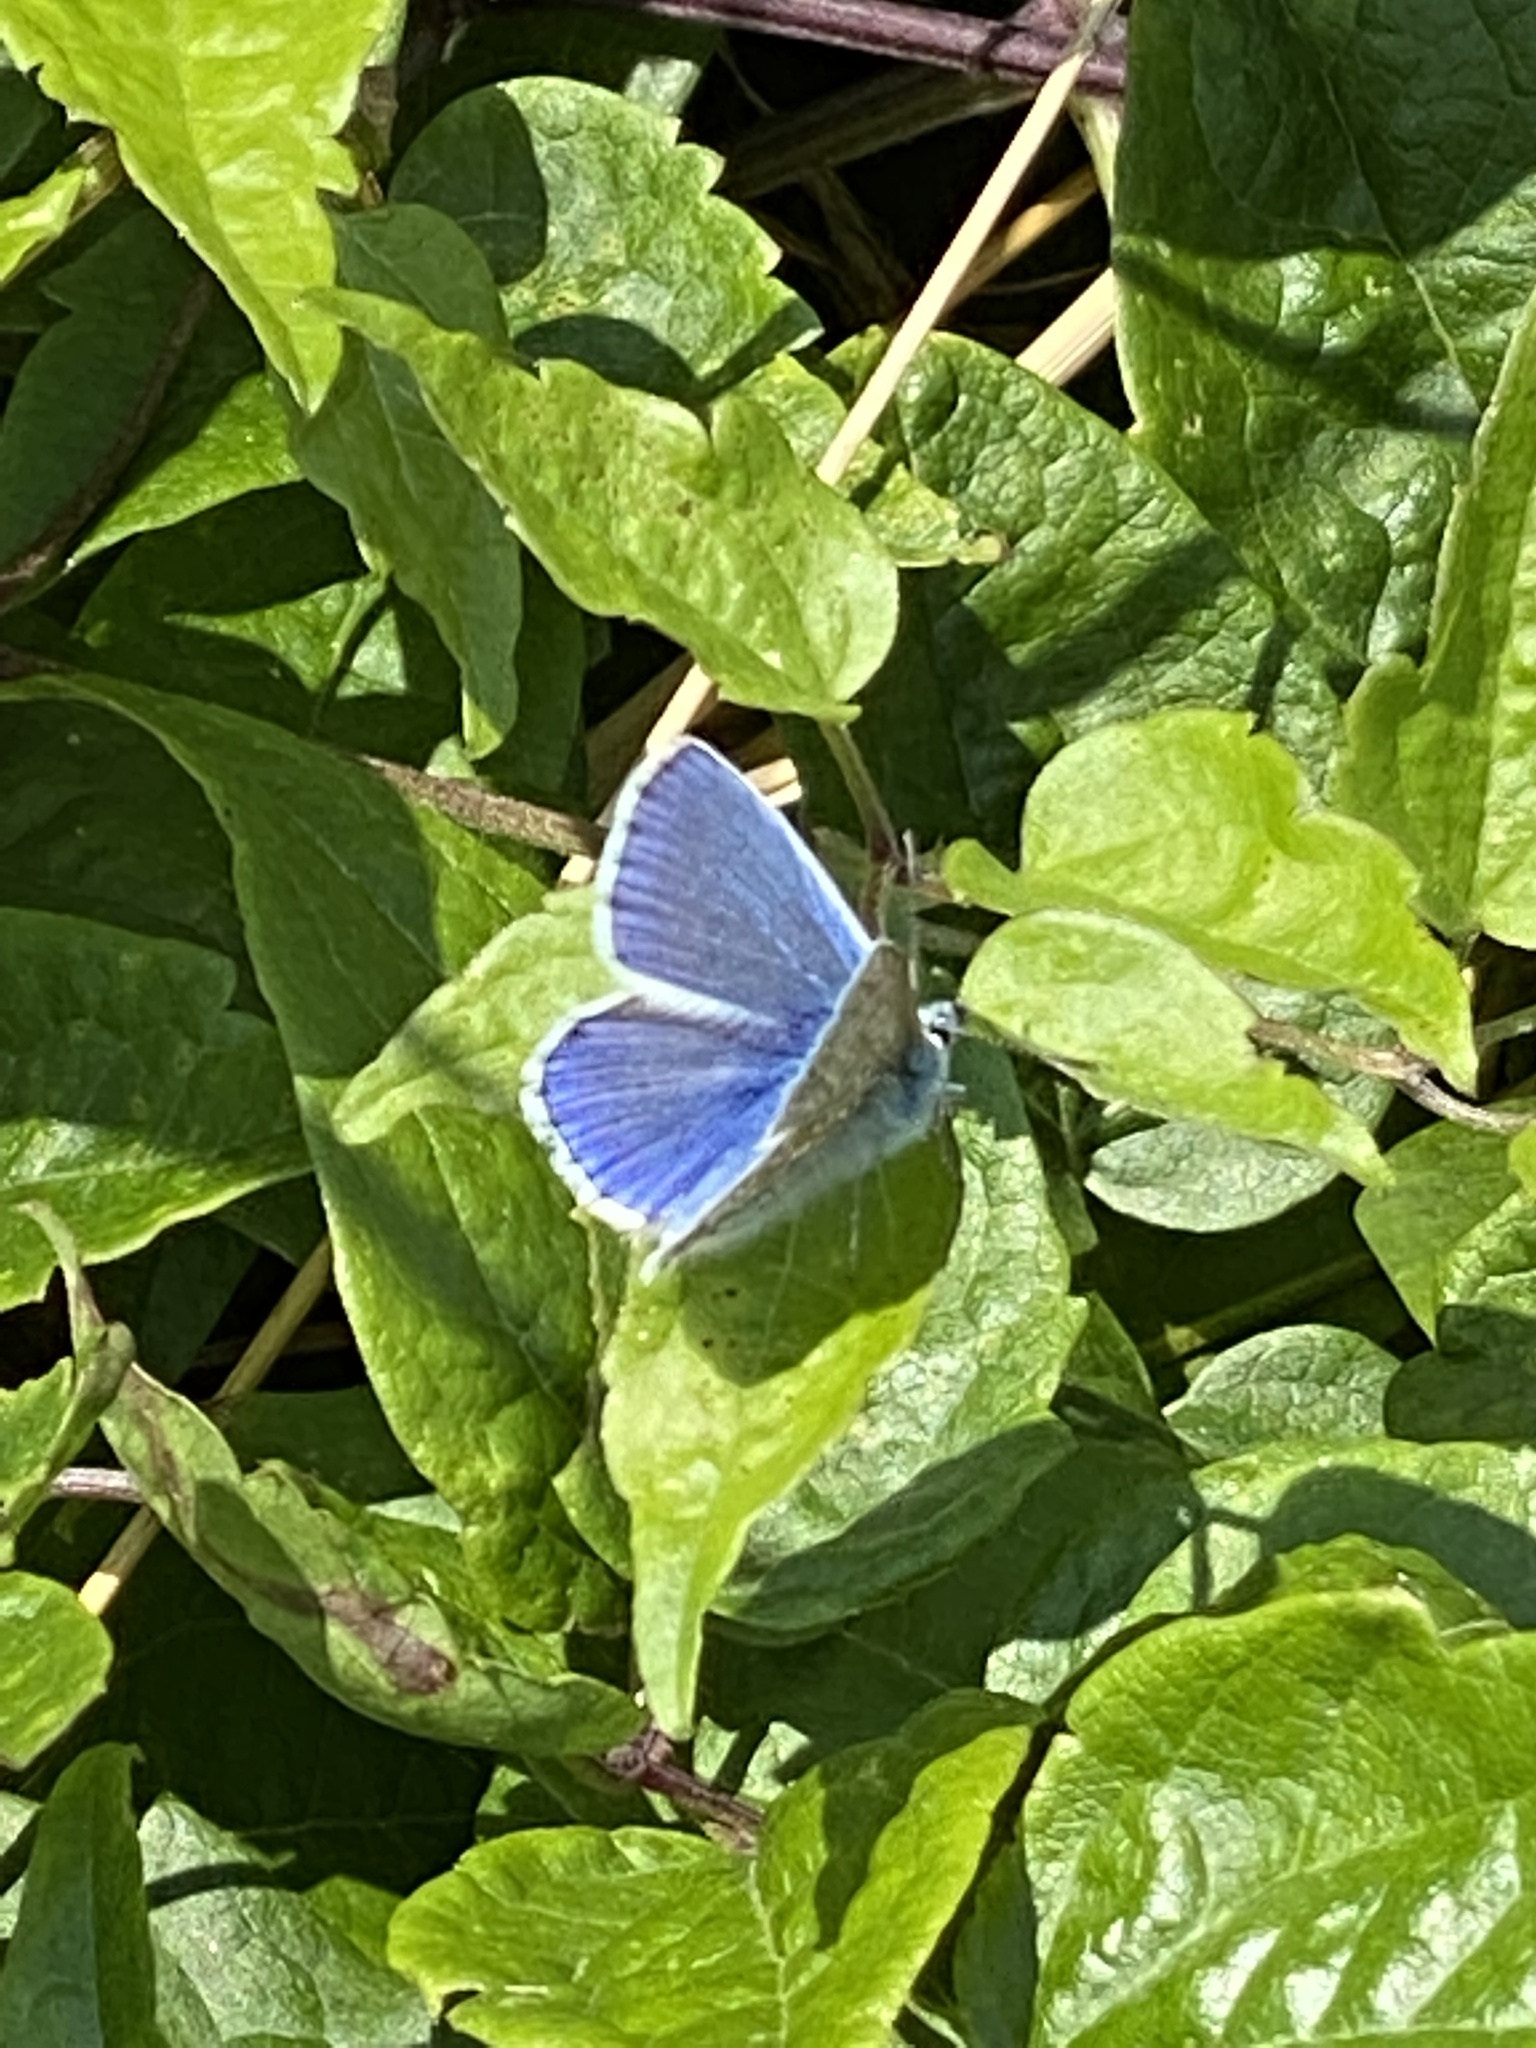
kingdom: Animalia
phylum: Arthropoda
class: Insecta
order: Lepidoptera
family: Lycaenidae
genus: Polyommatus
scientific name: Polyommatus icarus
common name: Common blue
